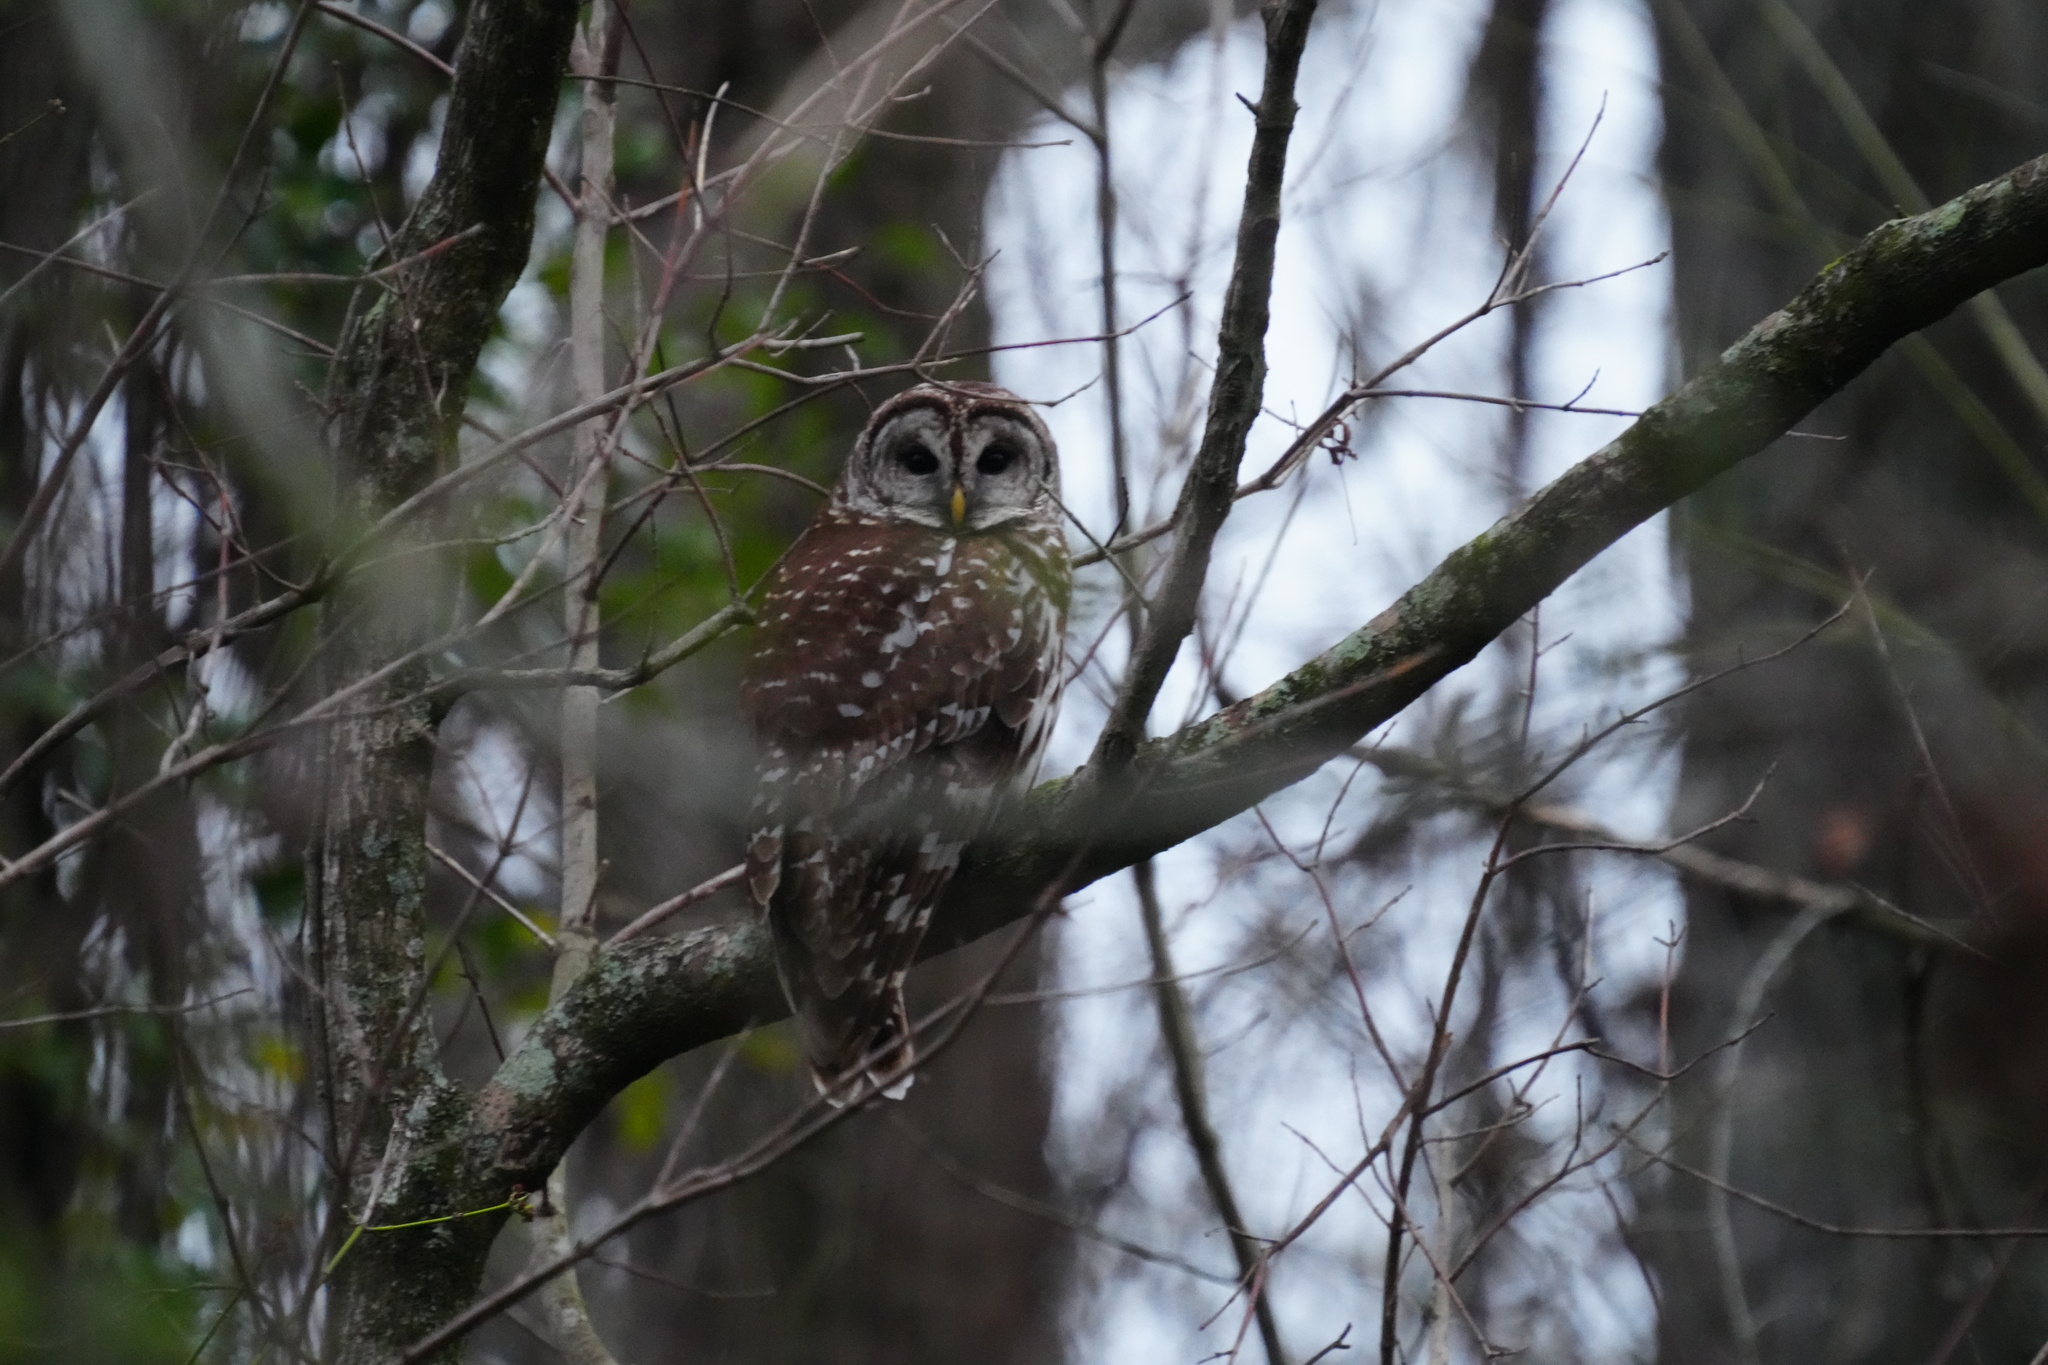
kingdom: Animalia
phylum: Chordata
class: Aves
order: Strigiformes
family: Strigidae
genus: Strix
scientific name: Strix varia
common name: Barred owl
